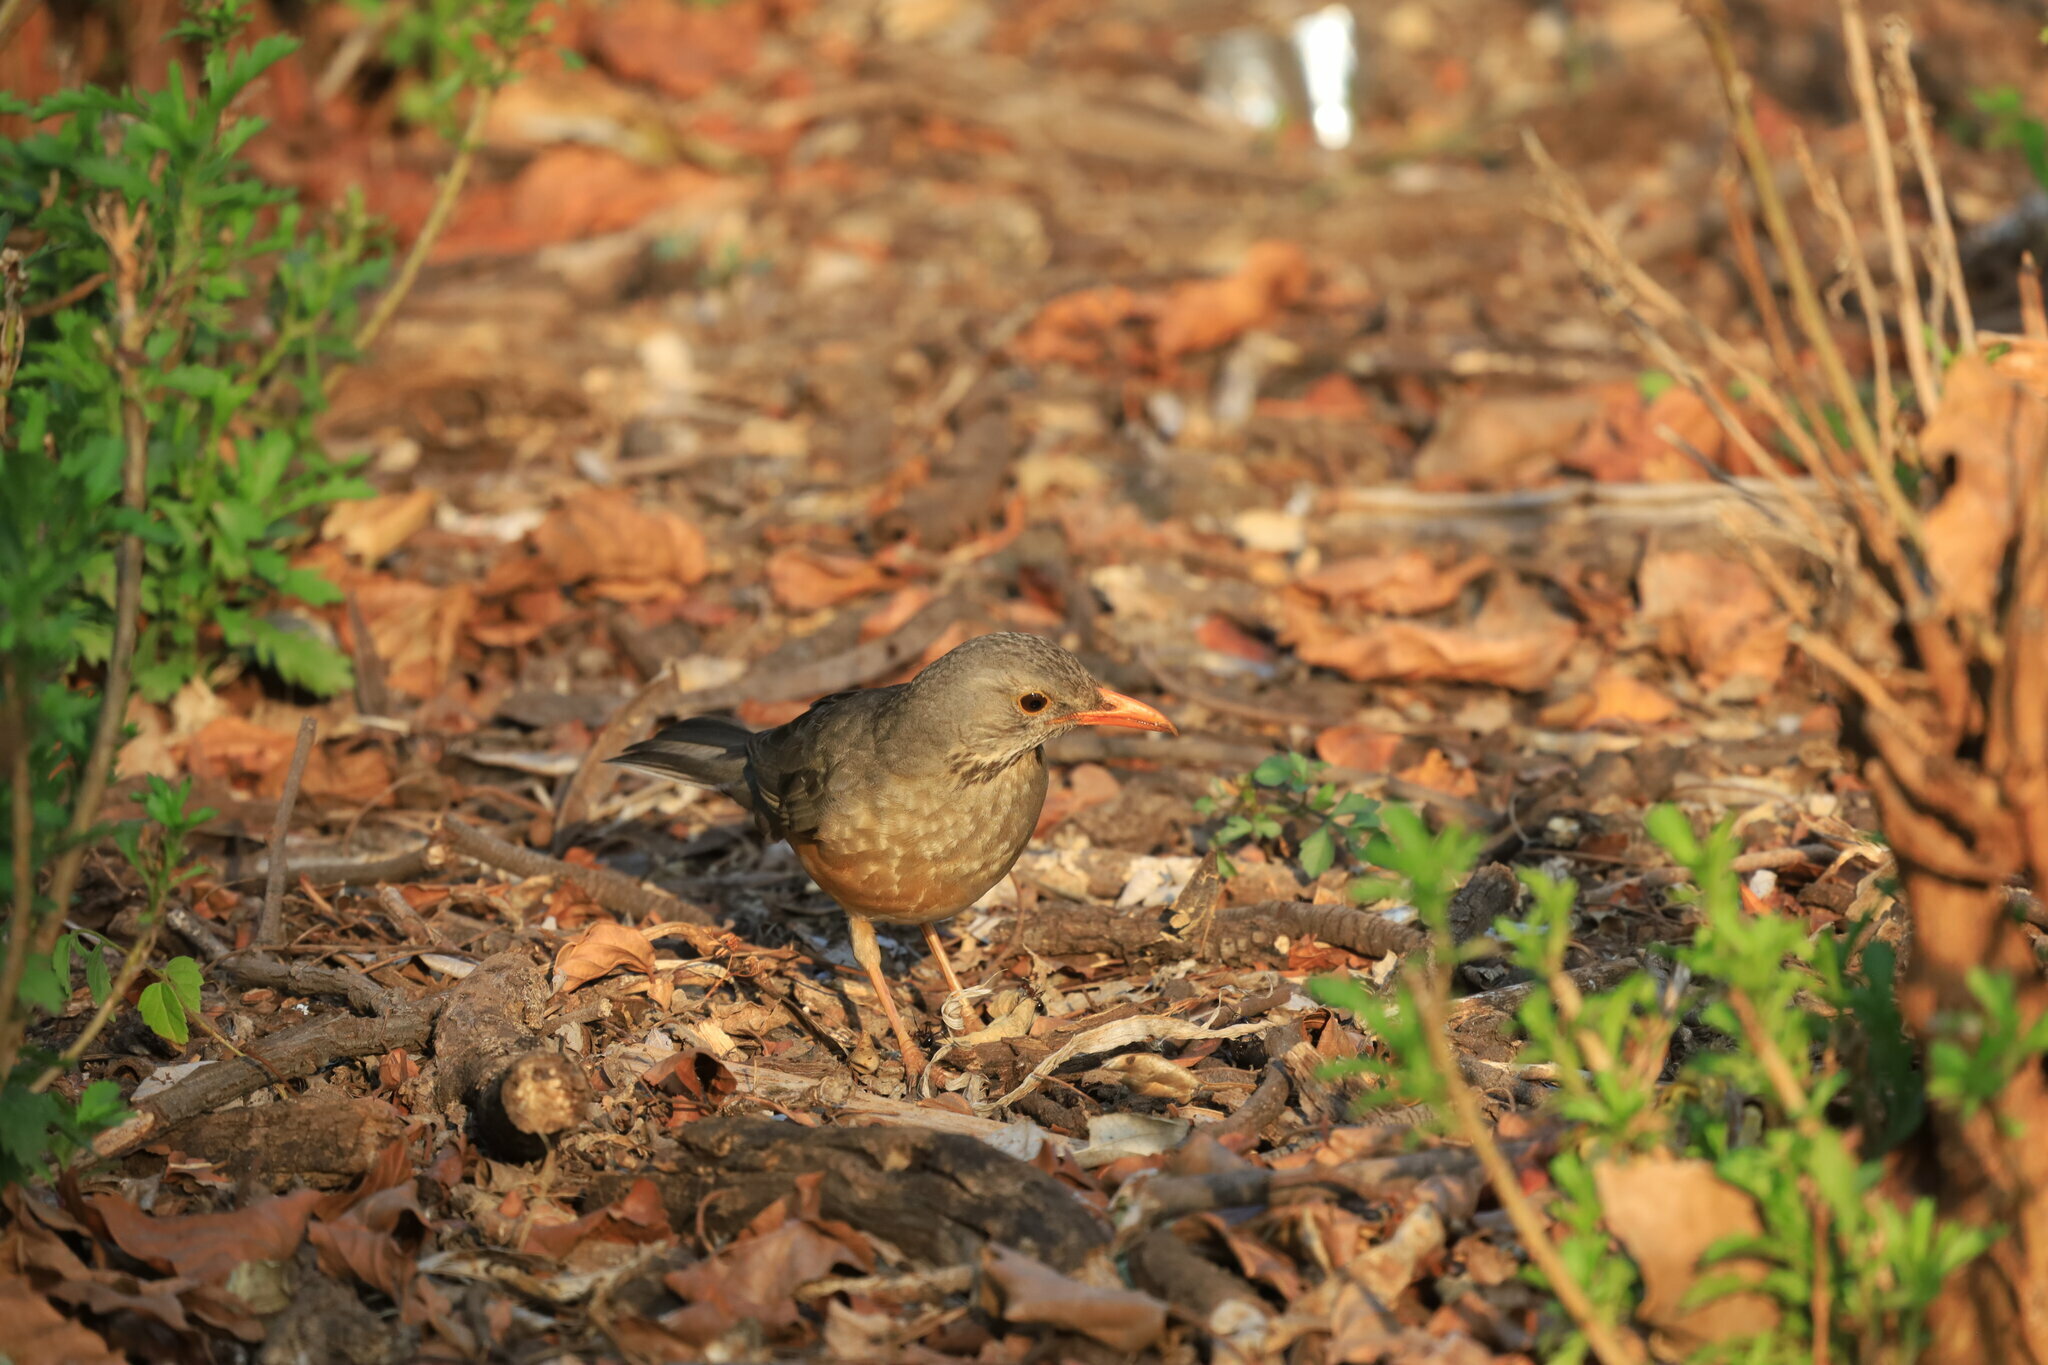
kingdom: Animalia
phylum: Chordata
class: Aves
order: Passeriformes
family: Turdidae
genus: Turdus
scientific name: Turdus libonyana
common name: Kurrichane thrush
